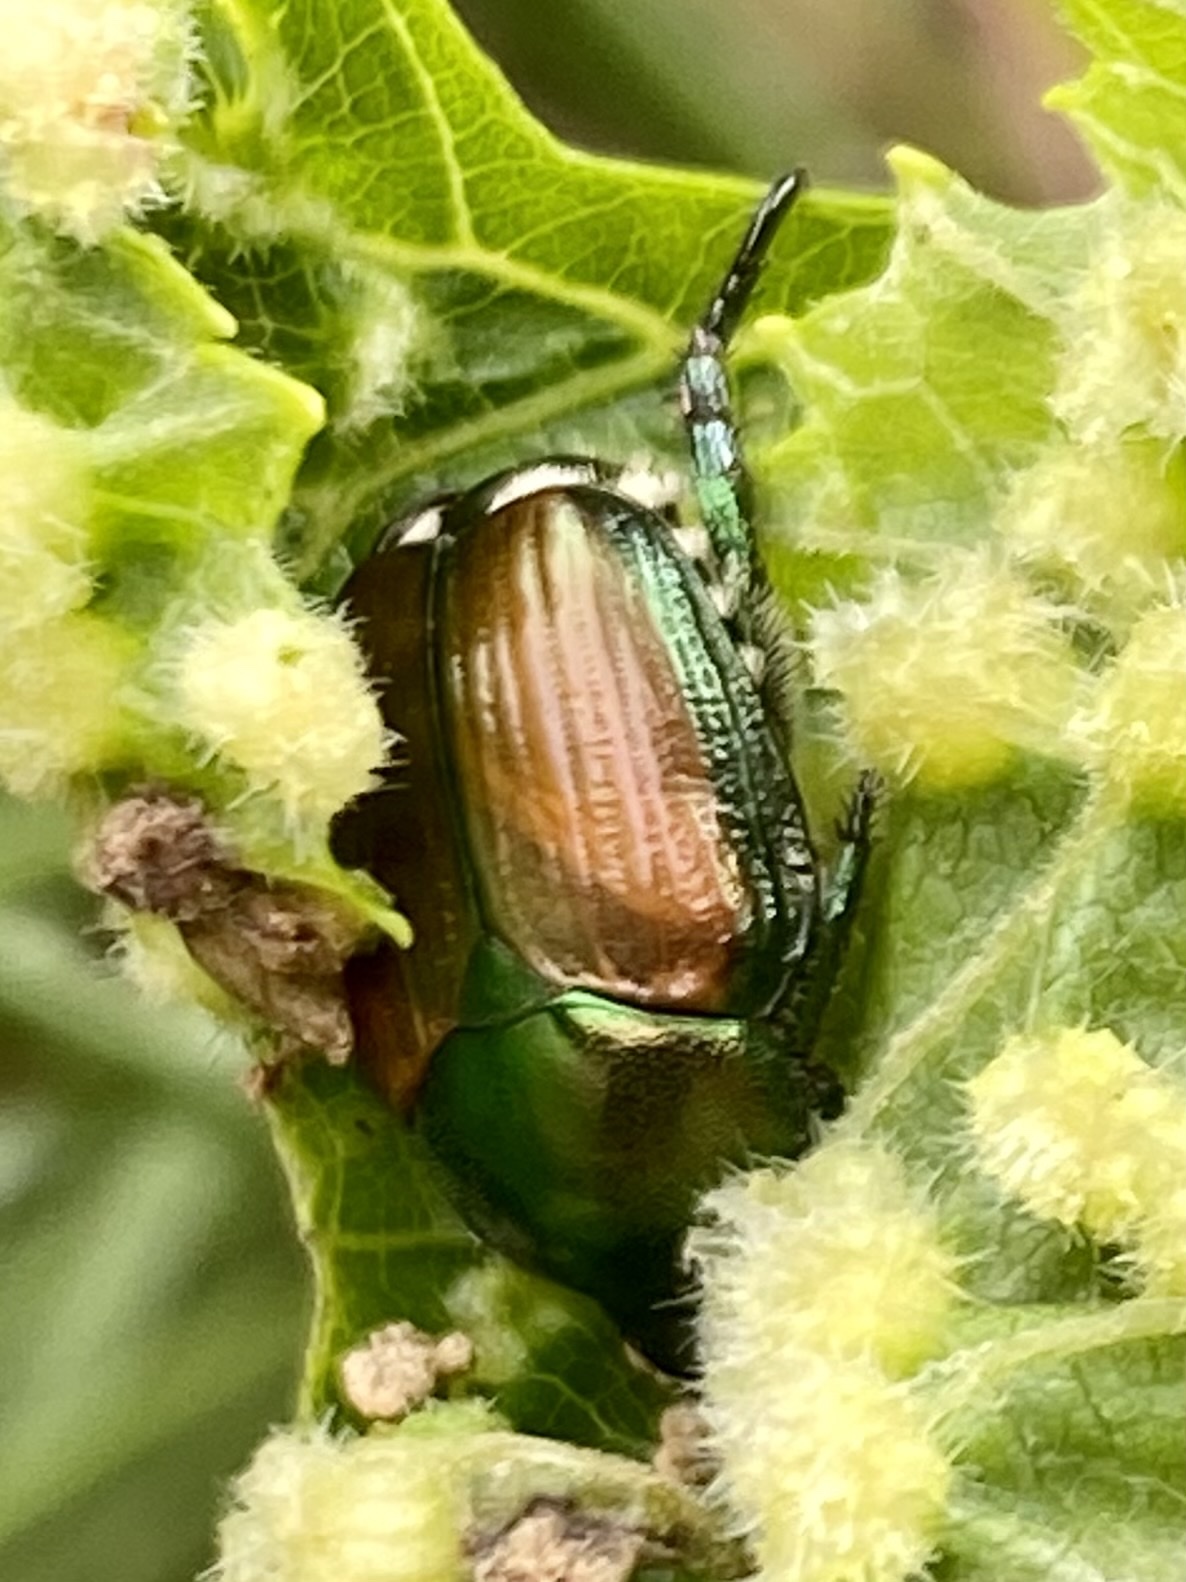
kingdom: Animalia
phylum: Arthropoda
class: Insecta
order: Coleoptera
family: Scarabaeidae
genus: Popillia
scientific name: Popillia japonica
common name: Japanese beetle
